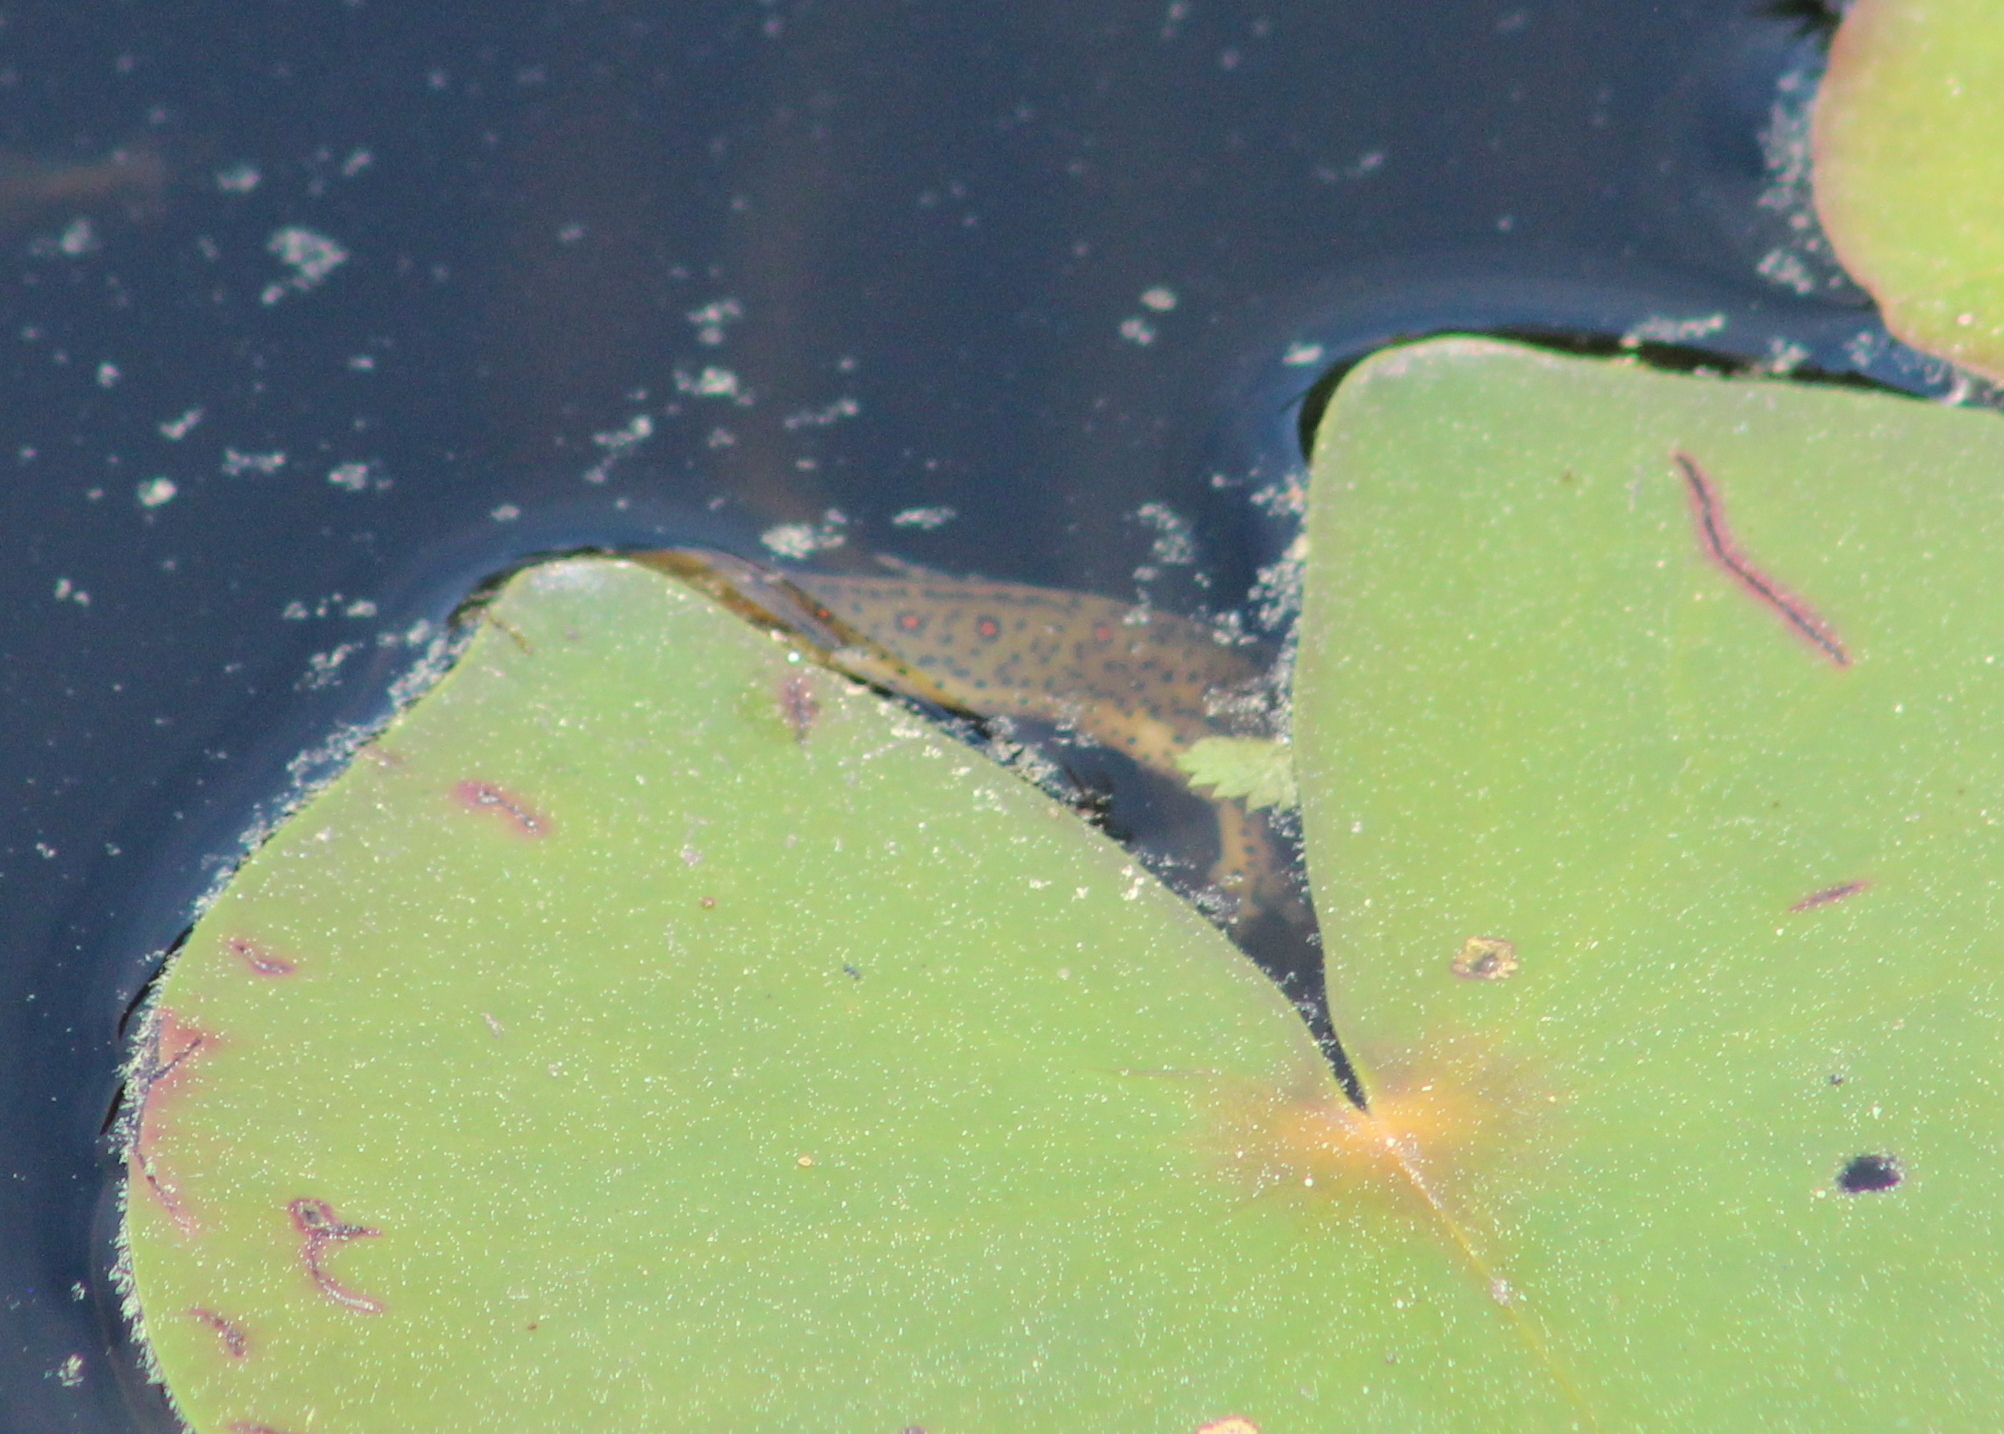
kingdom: Animalia
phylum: Chordata
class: Amphibia
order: Caudata
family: Salamandridae
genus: Notophthalmus
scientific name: Notophthalmus viridescens
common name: Eastern newt
